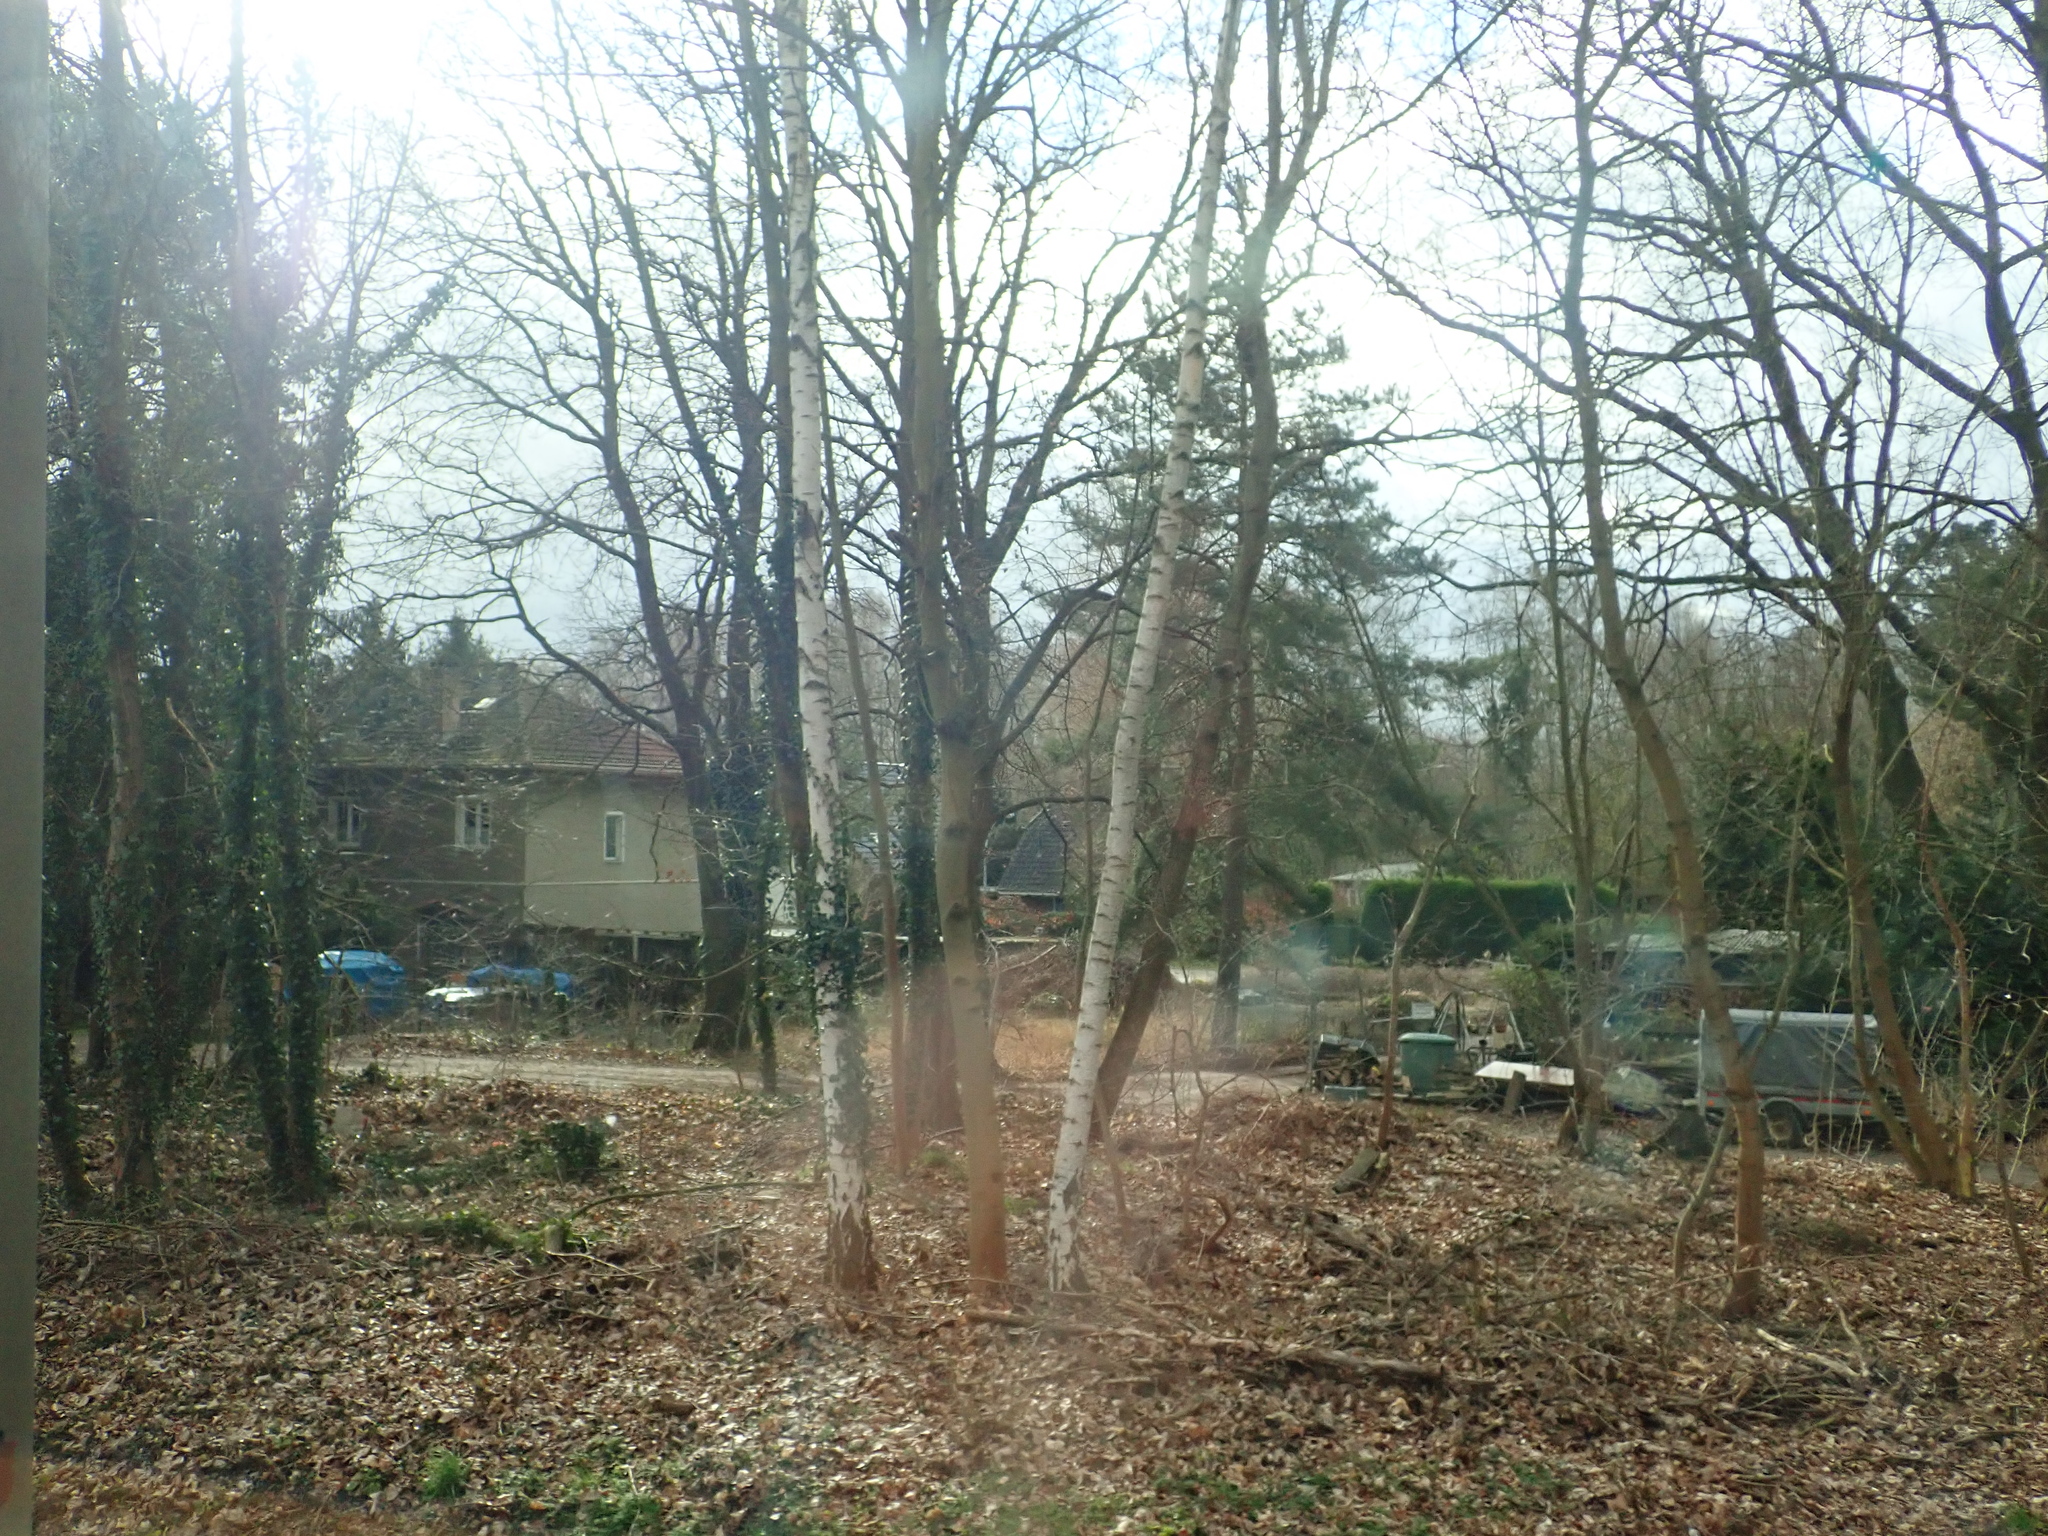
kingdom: Plantae
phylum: Tracheophyta
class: Magnoliopsida
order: Fagales
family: Betulaceae
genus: Betula
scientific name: Betula pendula
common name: Silver birch
